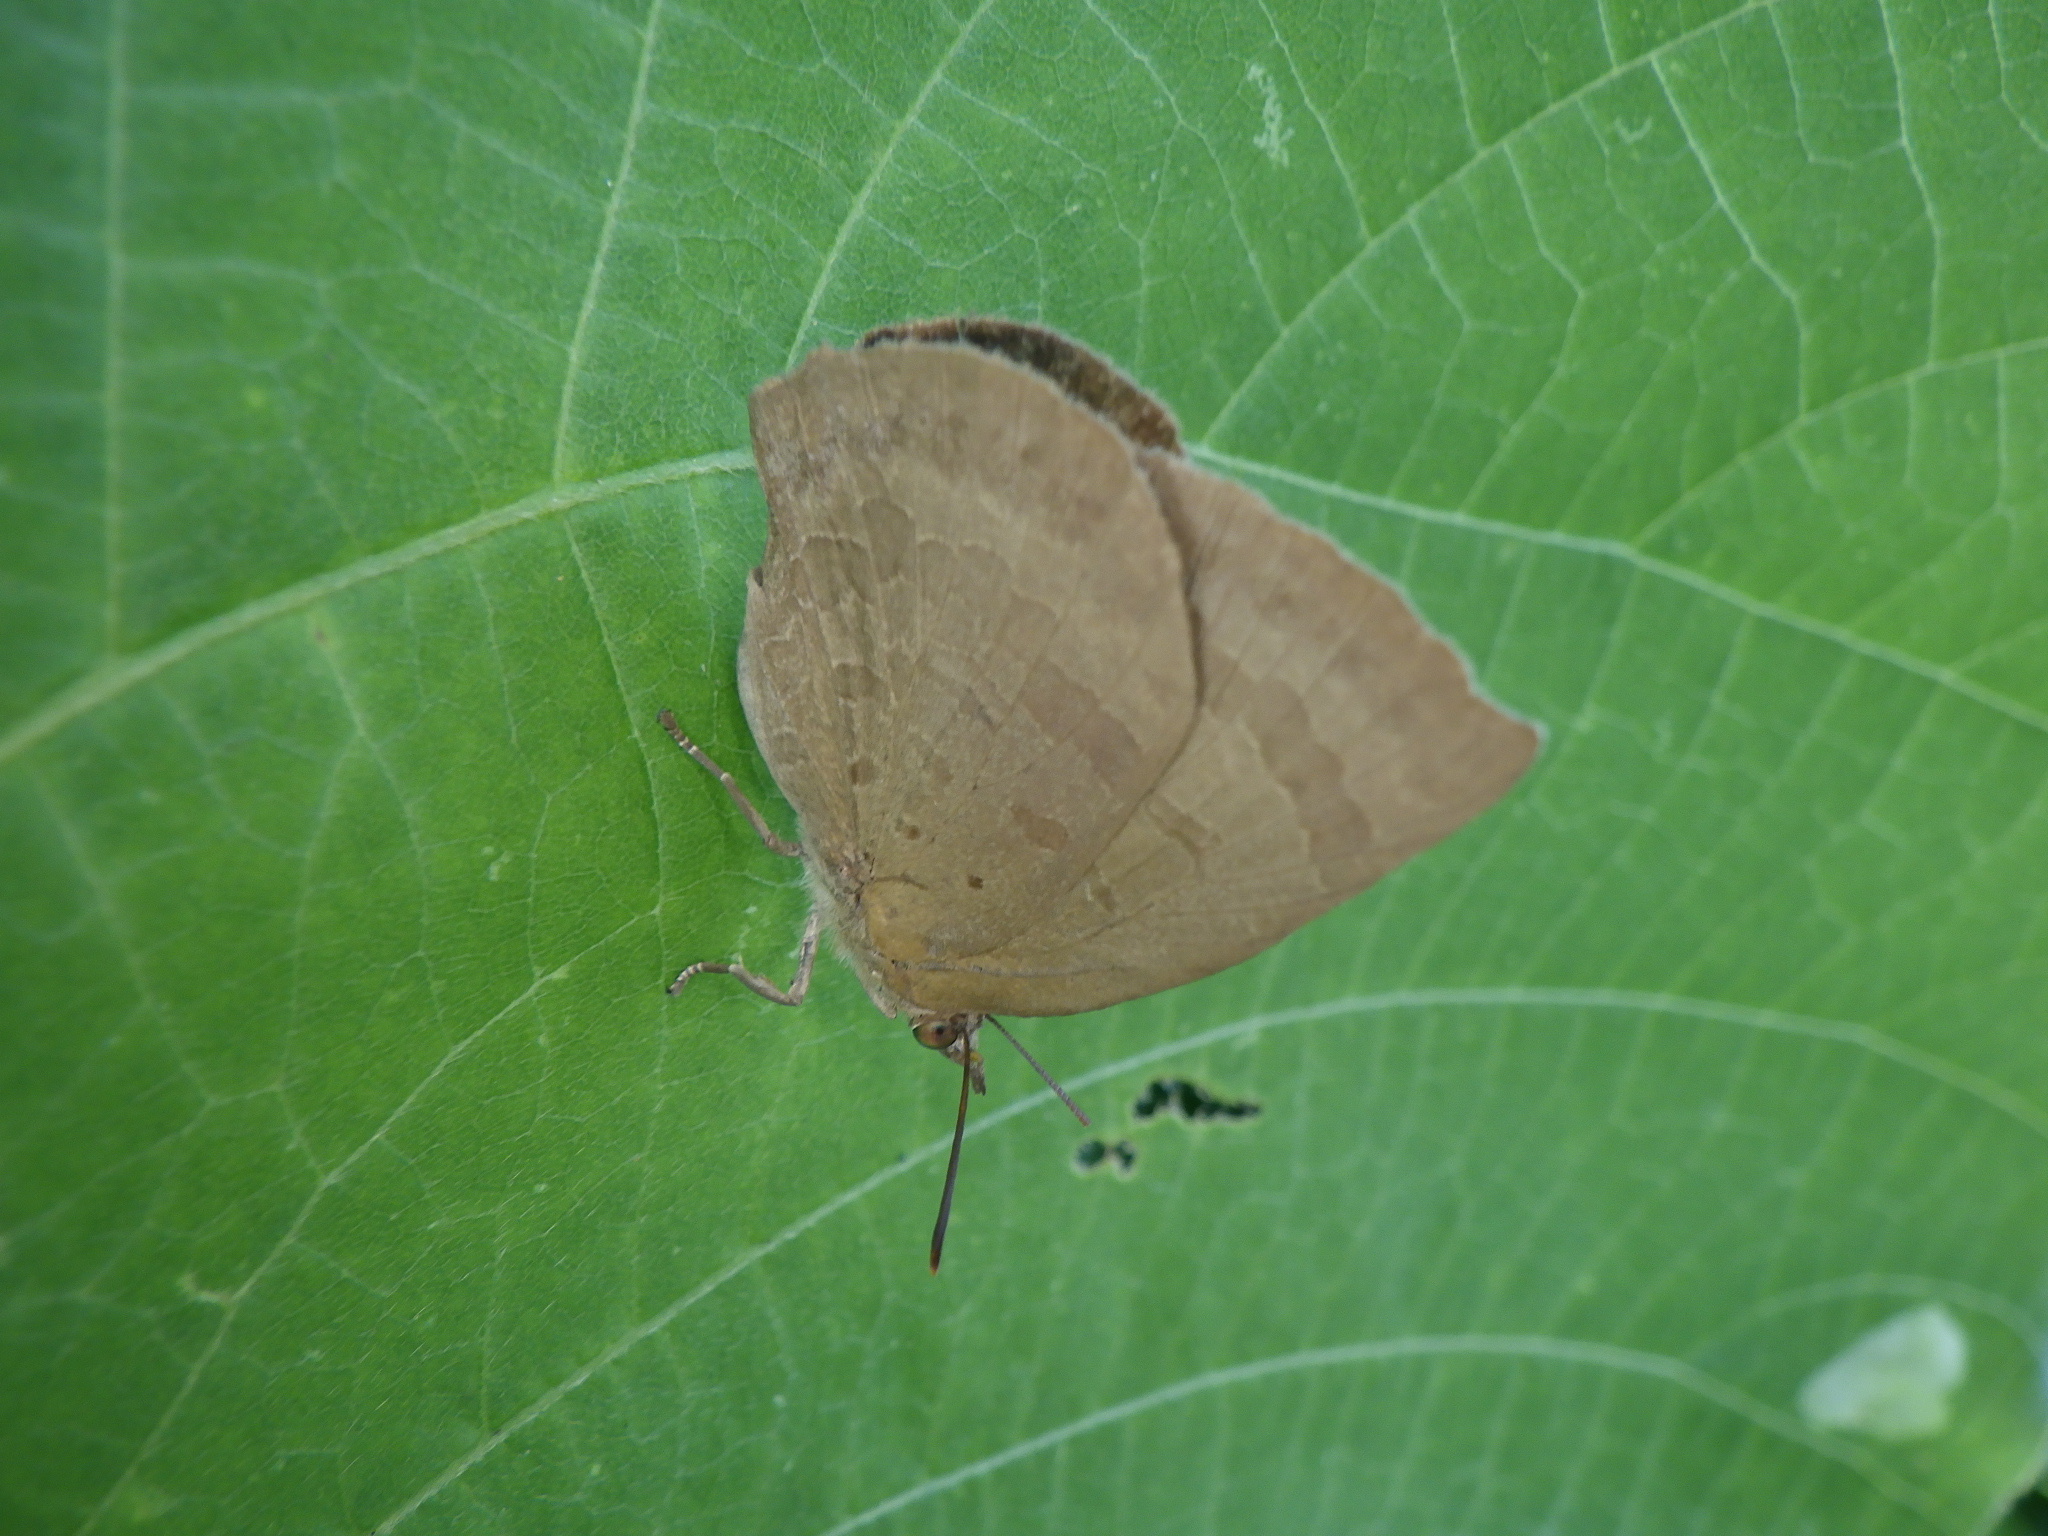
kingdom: Animalia
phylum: Arthropoda
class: Insecta
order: Lepidoptera
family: Lycaenidae
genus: Arhopala
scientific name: Arhopala japonica
